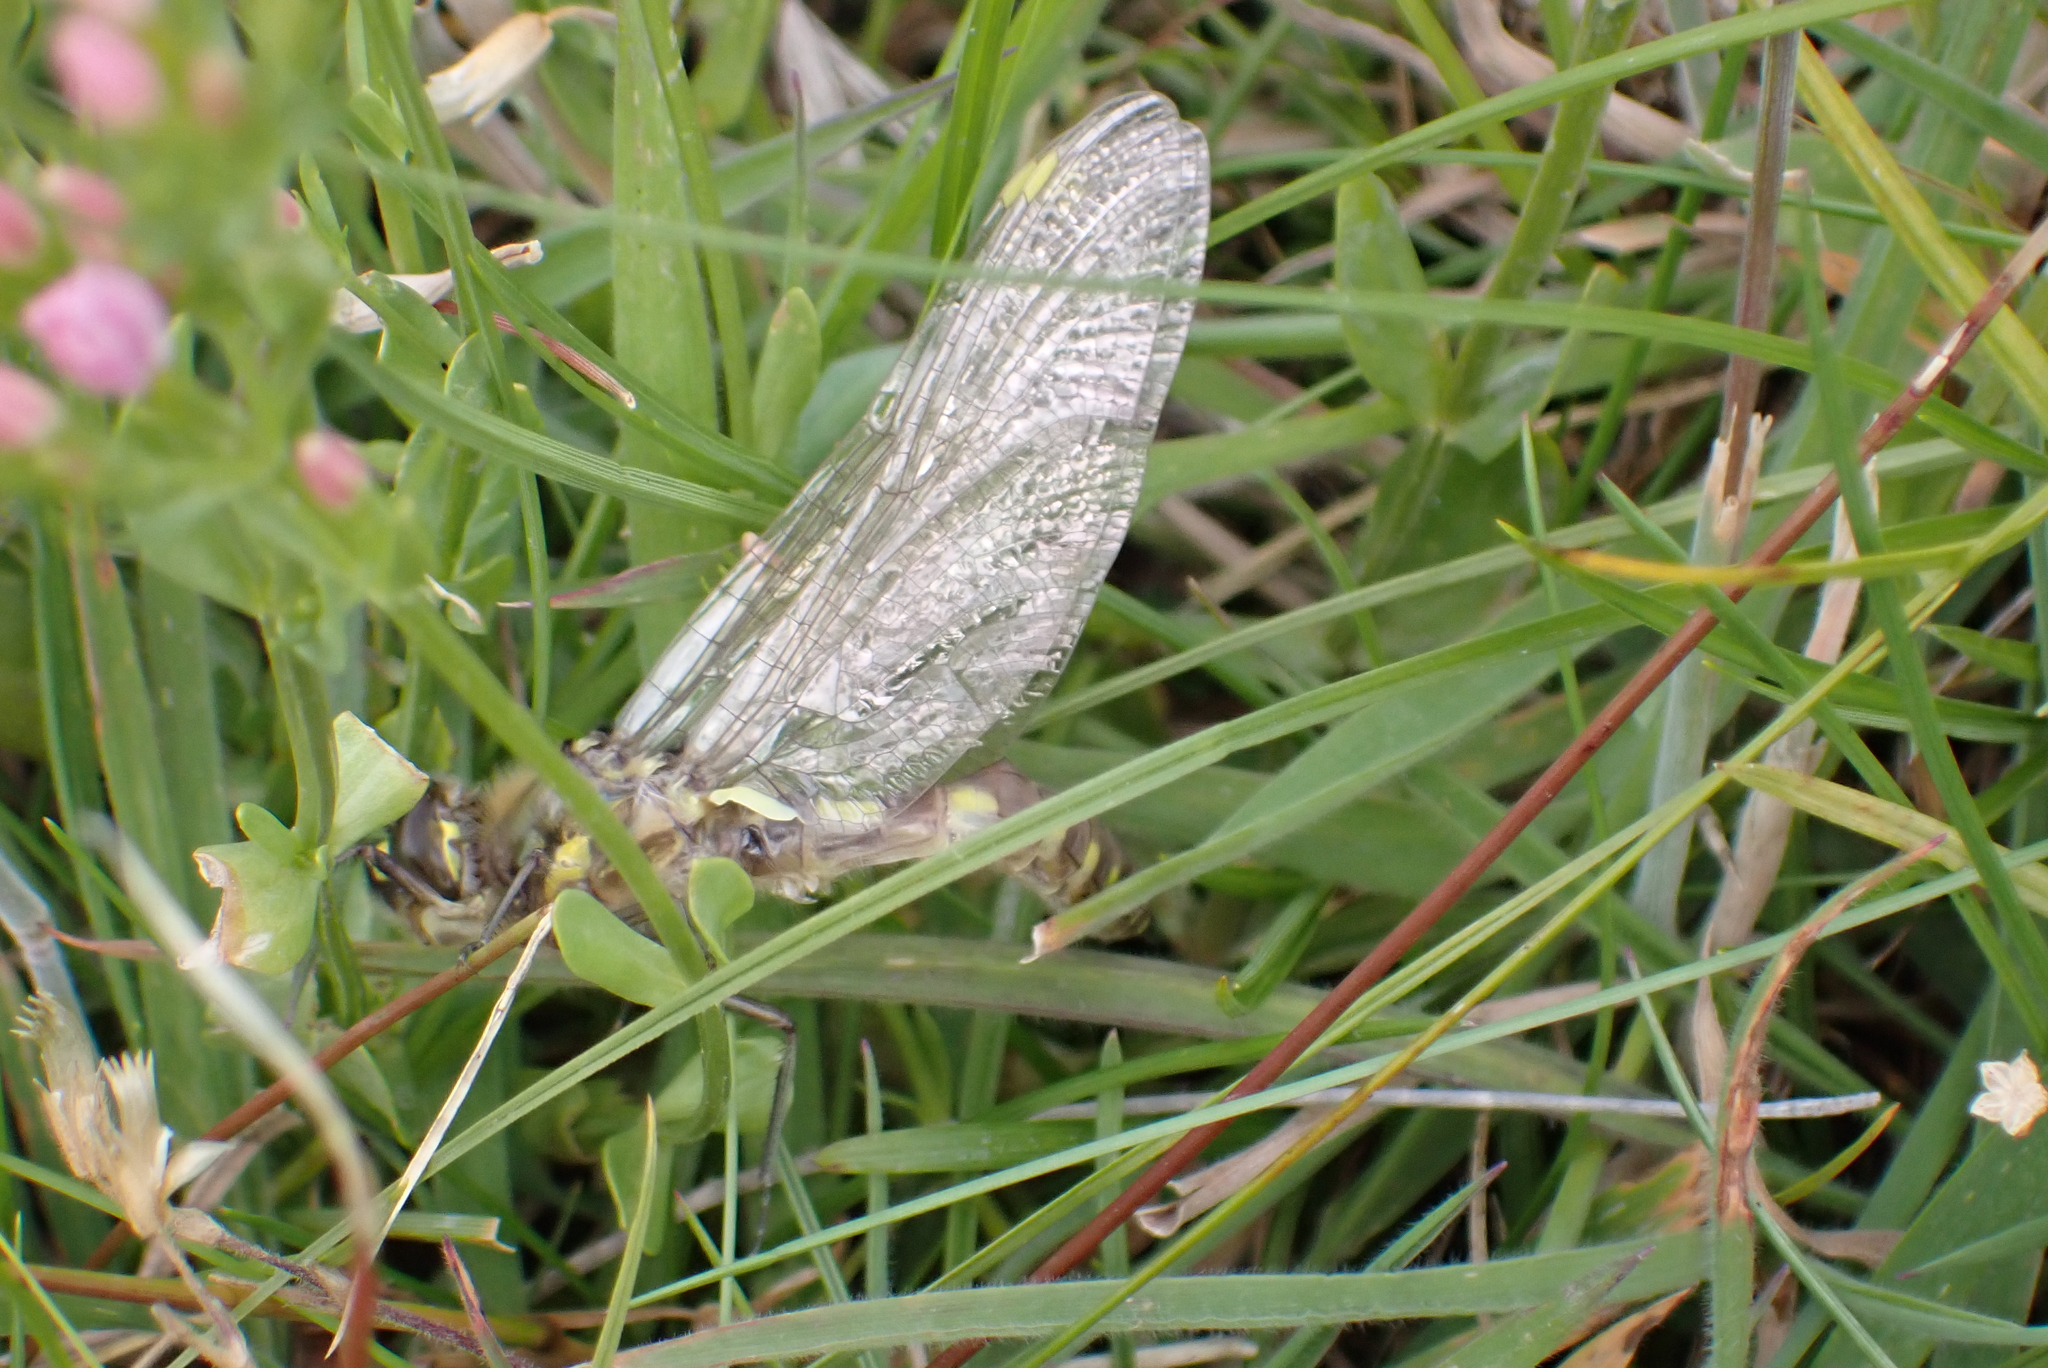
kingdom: Animalia
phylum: Arthropoda
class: Insecta
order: Odonata
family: Corduliidae
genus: Procordulia
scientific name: Procordulia grayi
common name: Yellow spotted dragonfly
